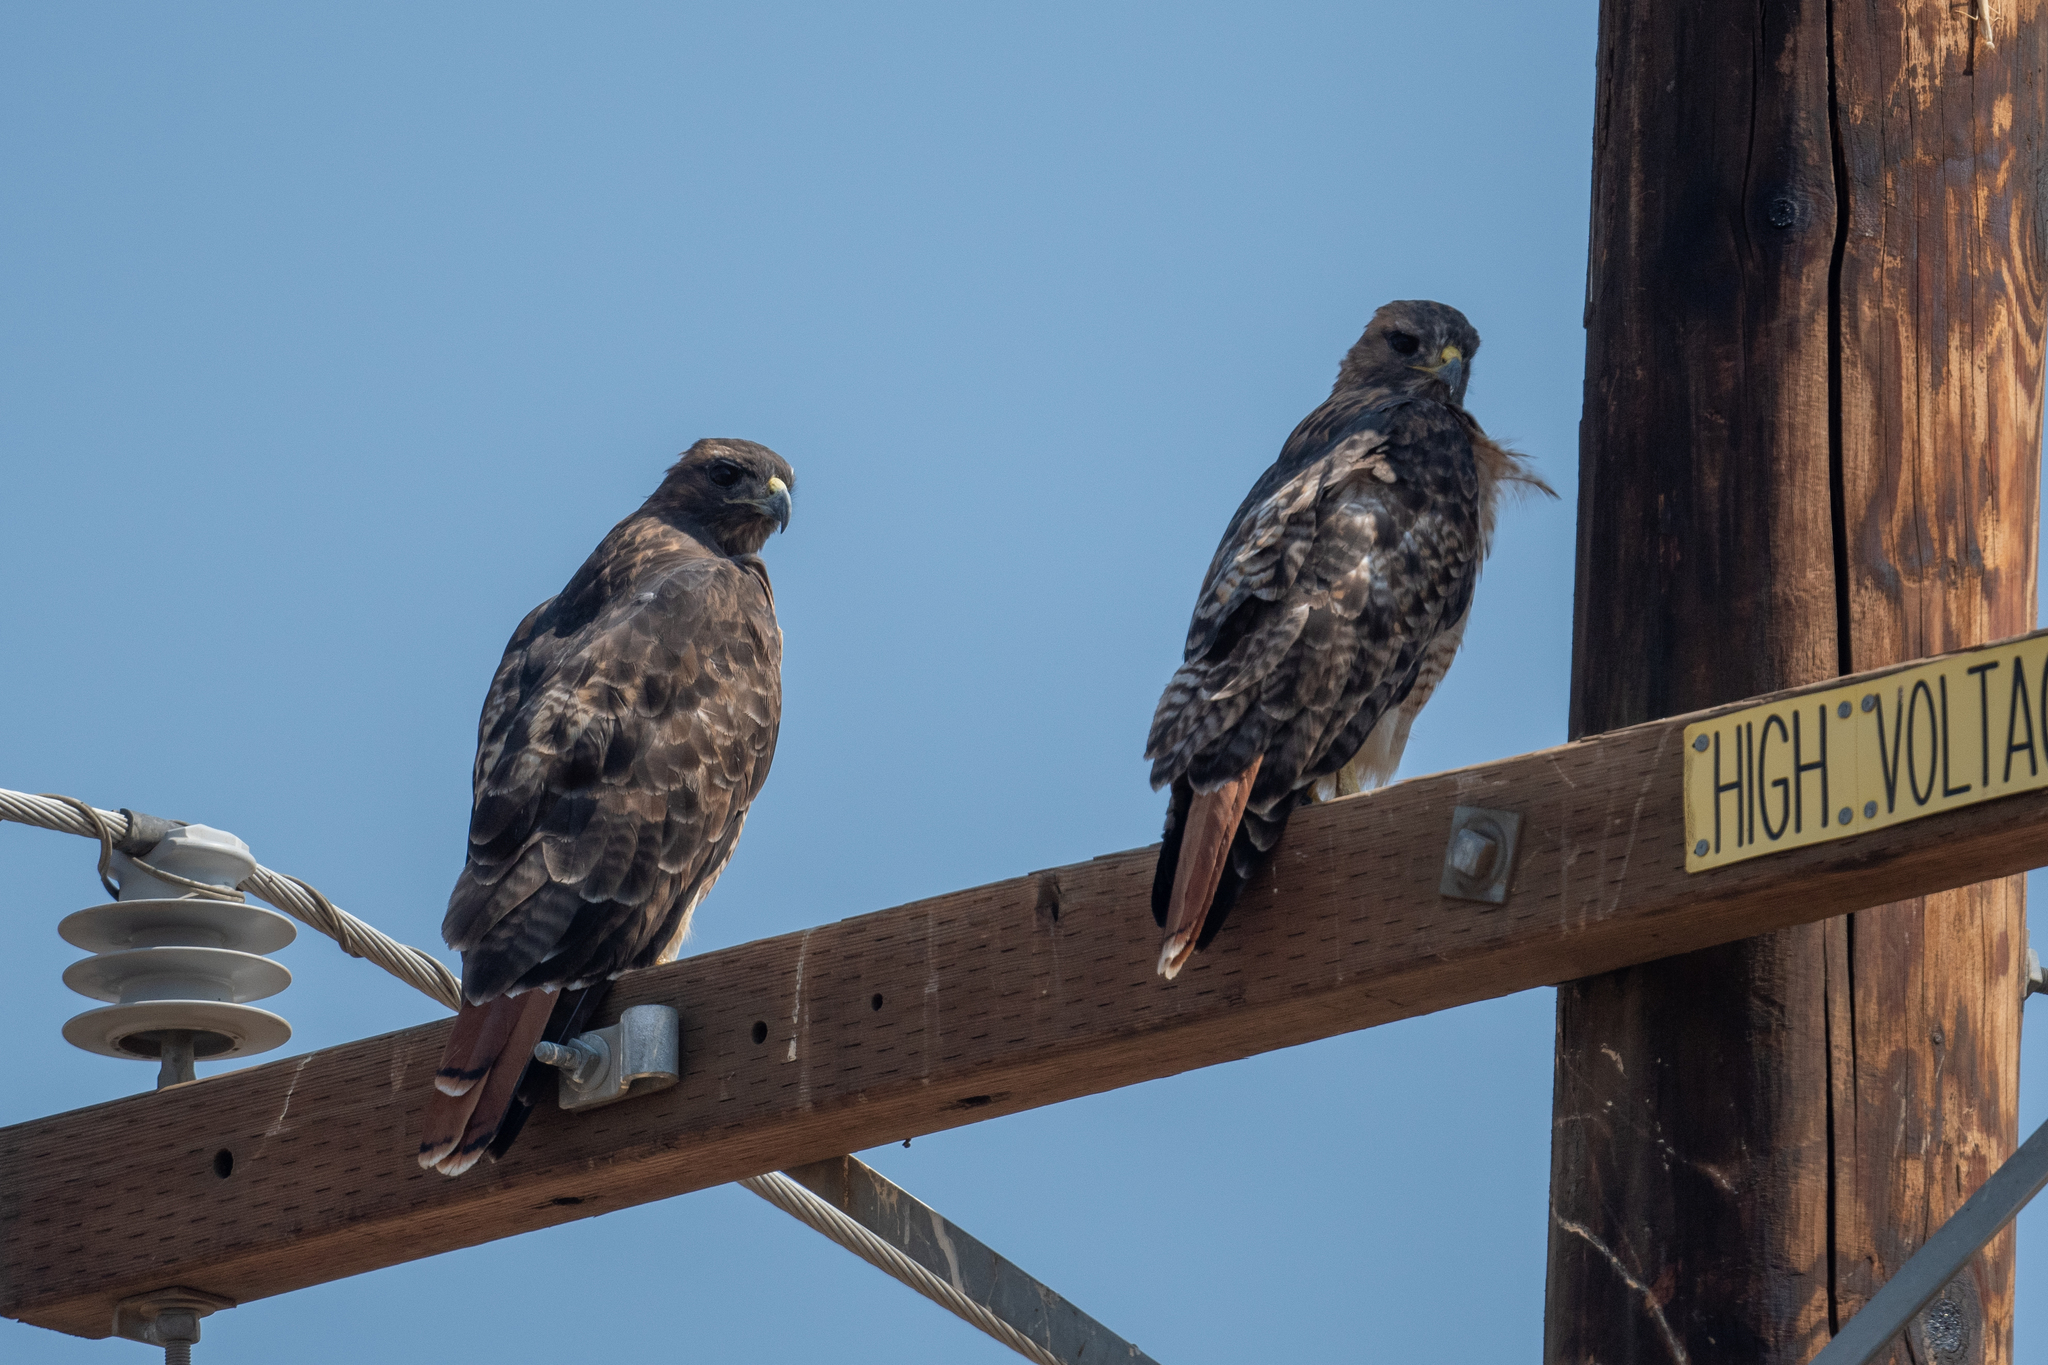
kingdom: Animalia
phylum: Chordata
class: Aves
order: Accipitriformes
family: Accipitridae
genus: Buteo
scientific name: Buteo jamaicensis
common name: Red-tailed hawk
